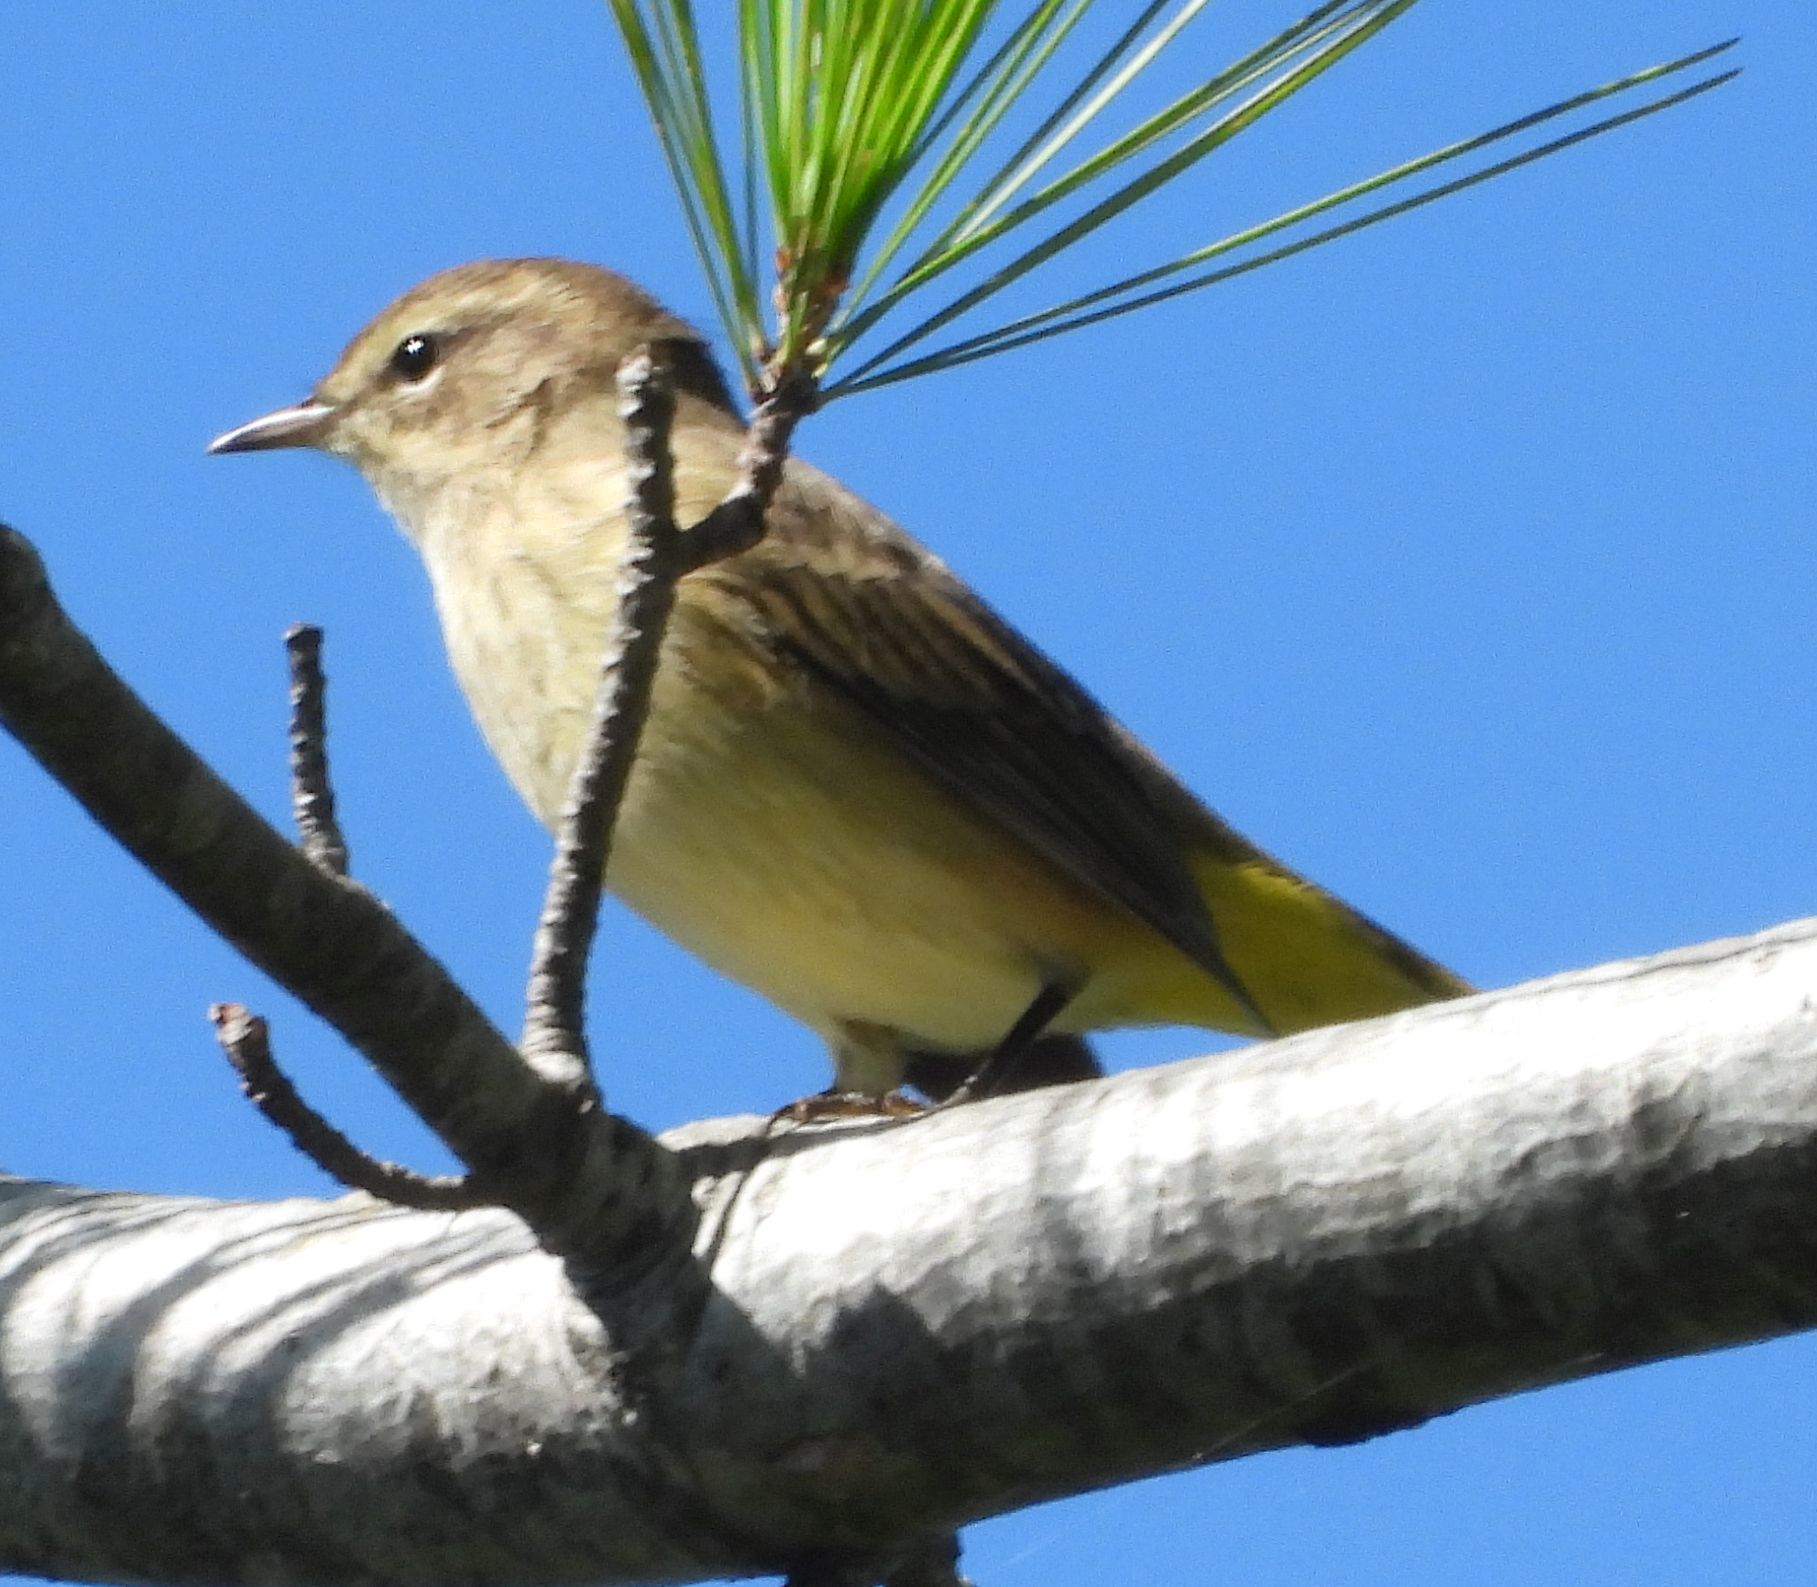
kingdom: Animalia
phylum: Chordata
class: Aves
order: Passeriformes
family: Parulidae
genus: Setophaga
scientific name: Setophaga palmarum
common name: Palm warbler
